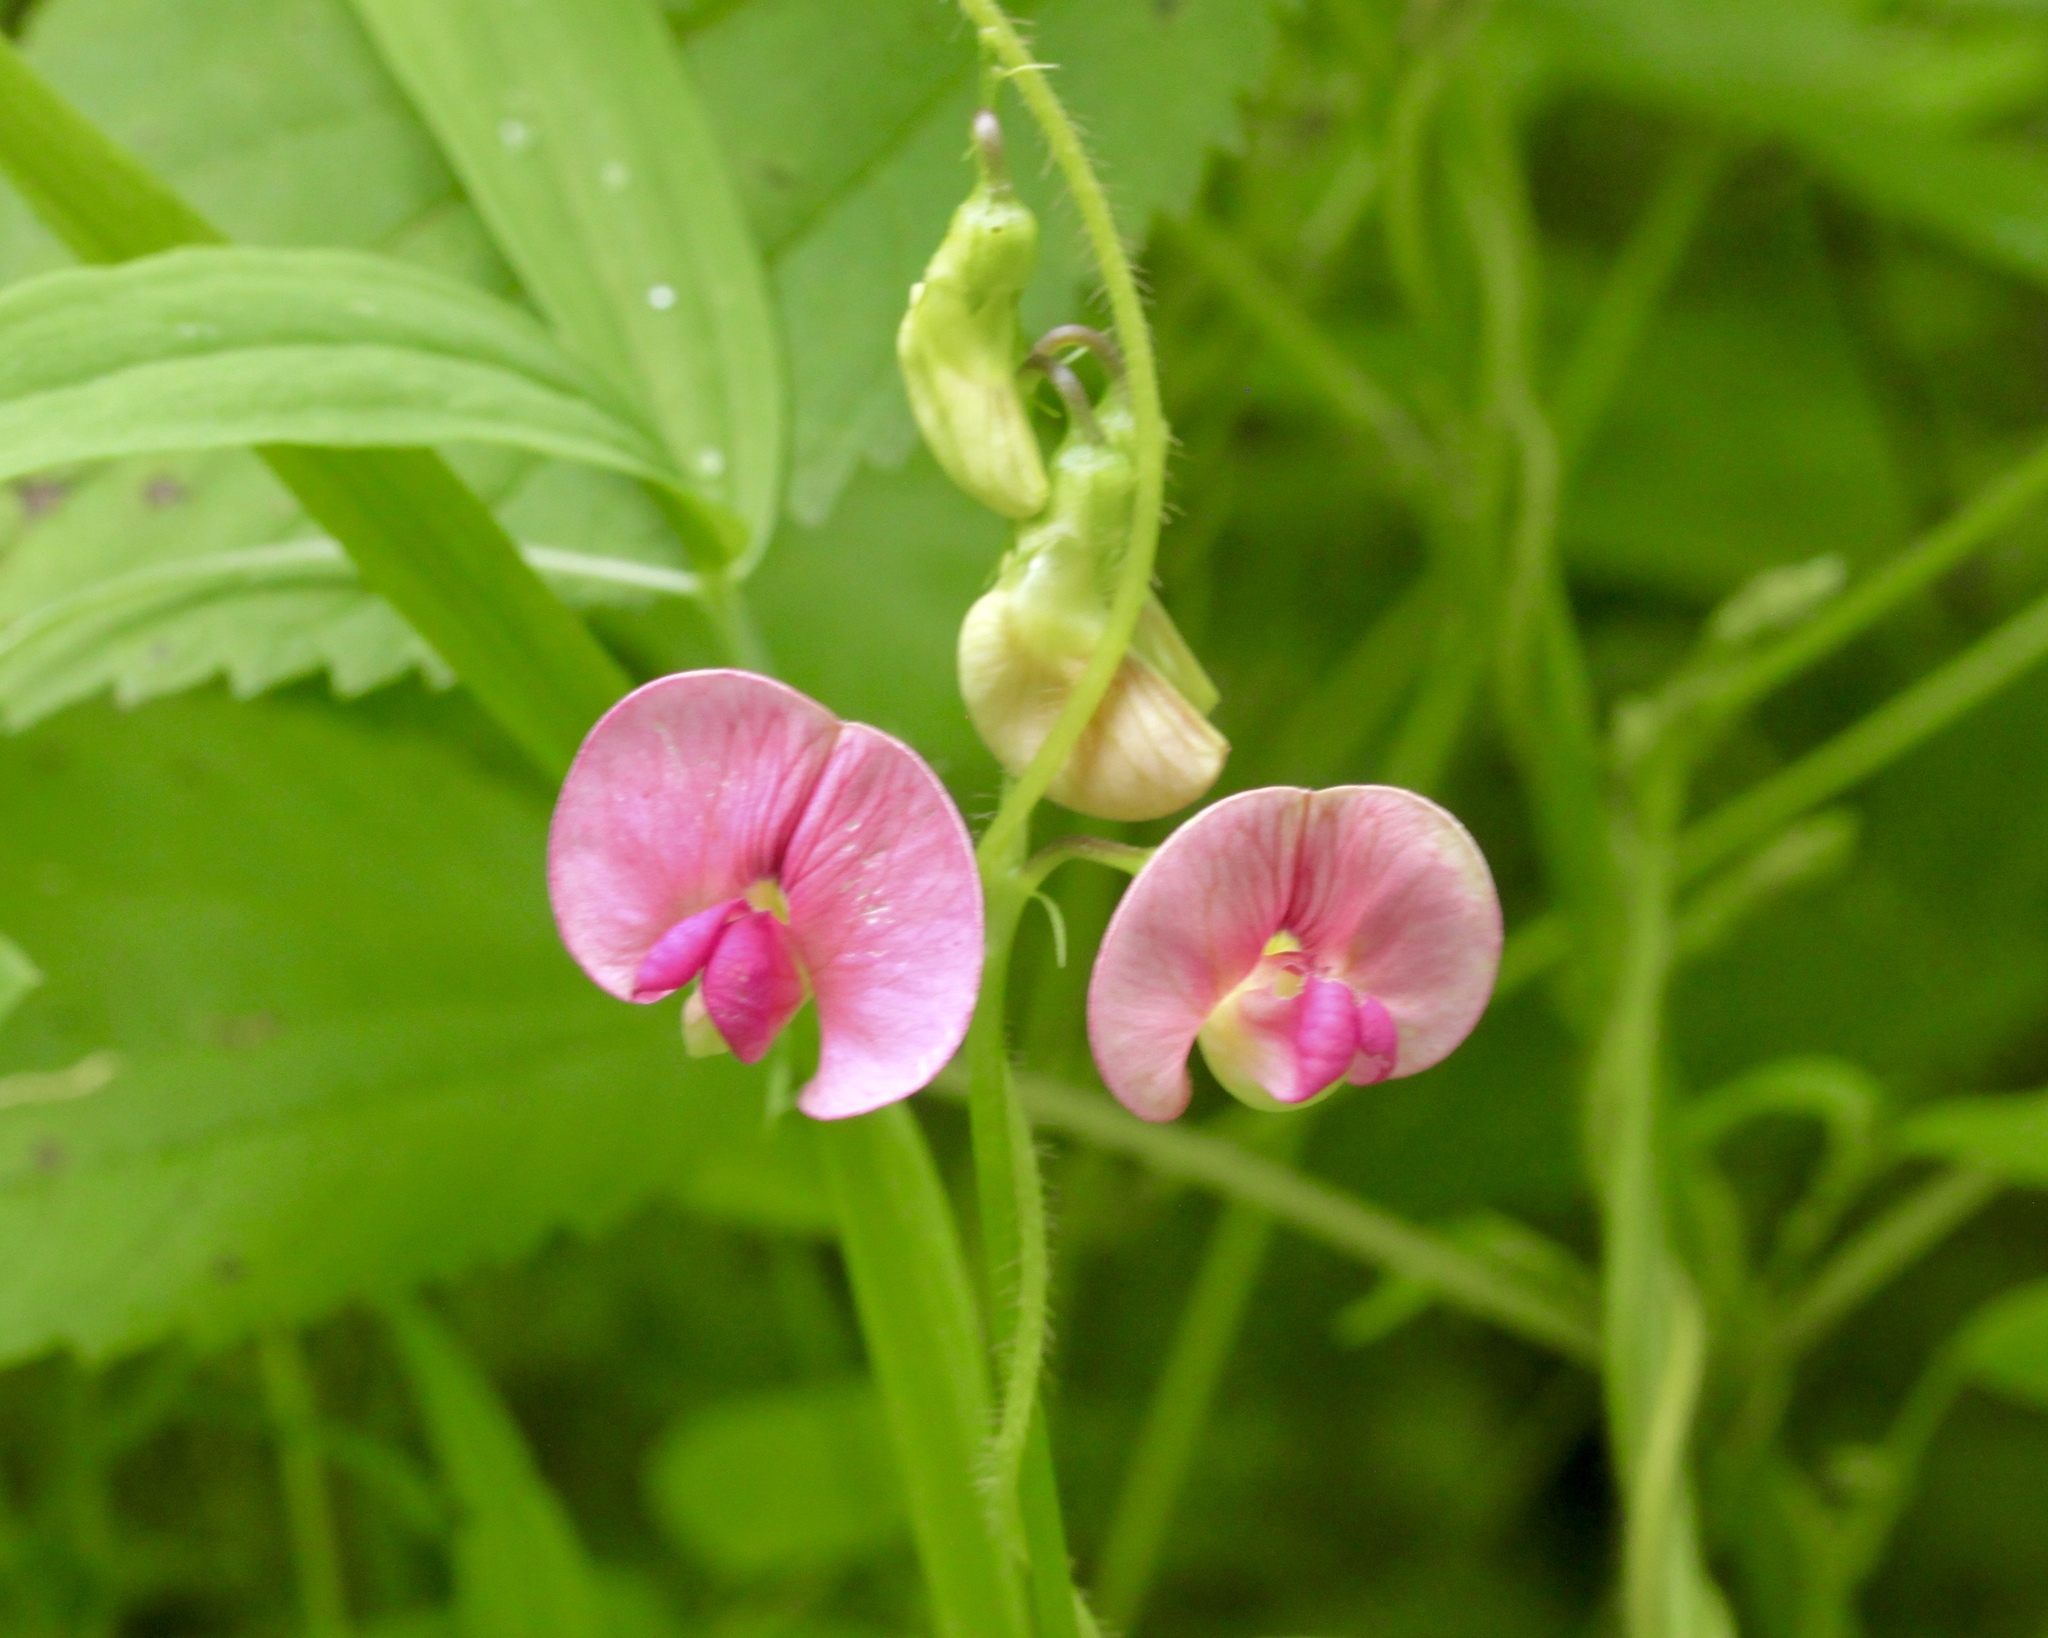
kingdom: Plantae
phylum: Tracheophyta
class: Magnoliopsida
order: Fabales
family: Fabaceae
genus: Lathyrus
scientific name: Lathyrus sylvestris
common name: Flat pea
